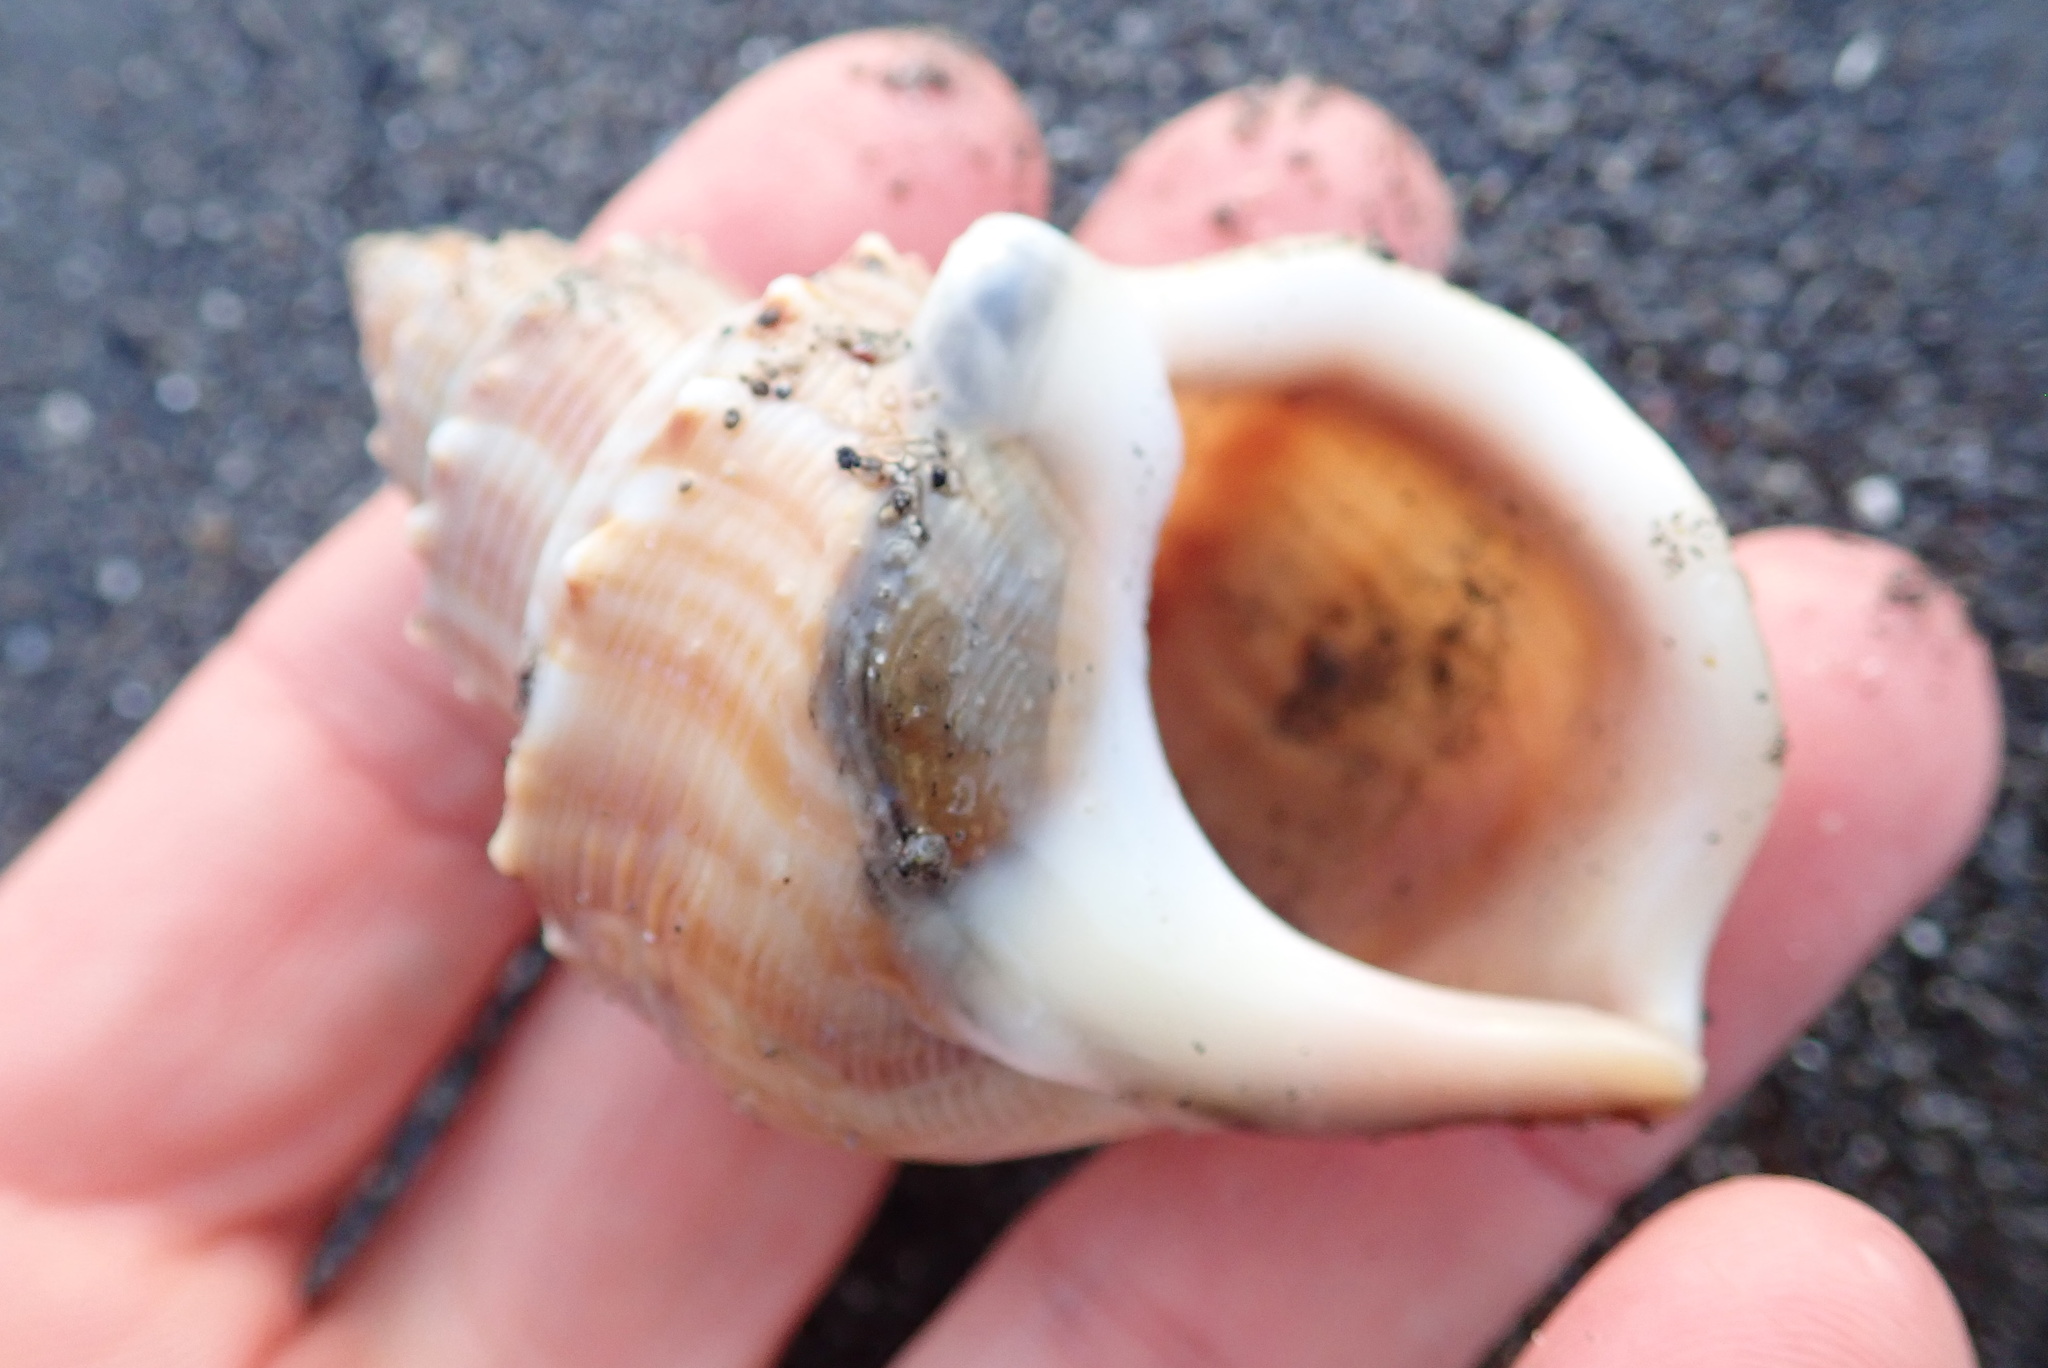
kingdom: Animalia
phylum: Mollusca
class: Gastropoda
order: Littorinimorpha
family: Struthiolariidae
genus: Struthiolaria
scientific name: Struthiolaria papulosa
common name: Large ostrich foot
